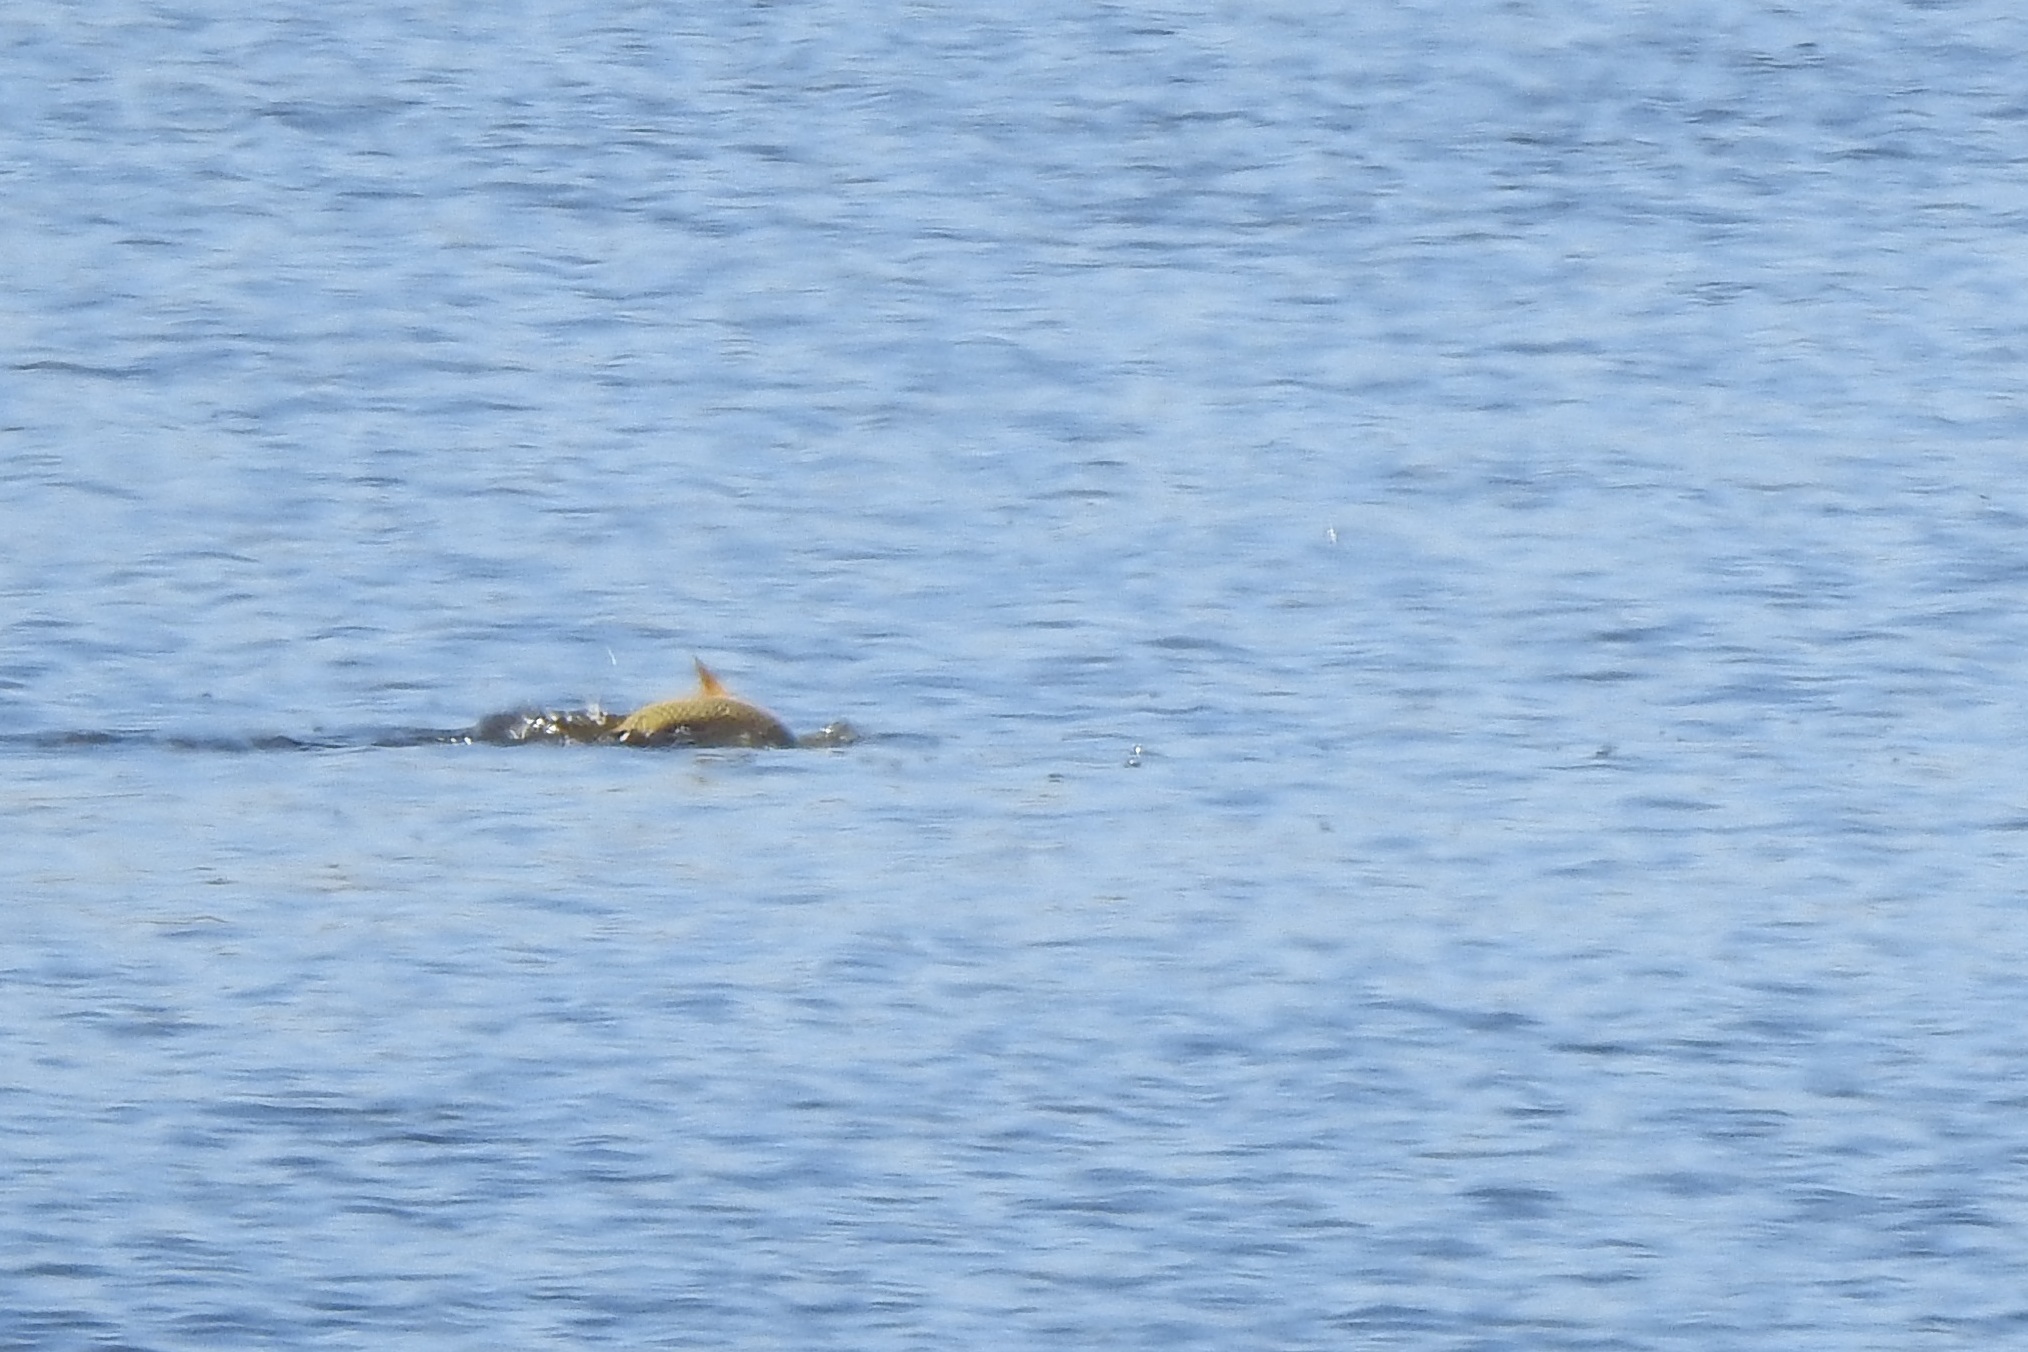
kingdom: Animalia
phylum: Chordata
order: Cypriniformes
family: Cyprinidae
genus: Cyprinus
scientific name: Cyprinus carpio
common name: Common carp
